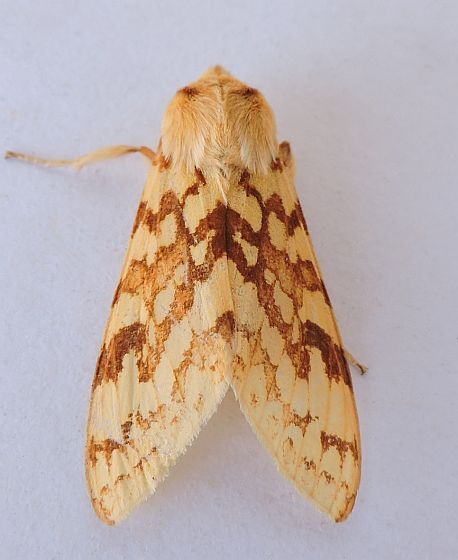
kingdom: Animalia
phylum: Arthropoda
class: Insecta
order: Lepidoptera
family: Erebidae
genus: Lophocampa
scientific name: Lophocampa maculata
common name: Spotted tussock moth
